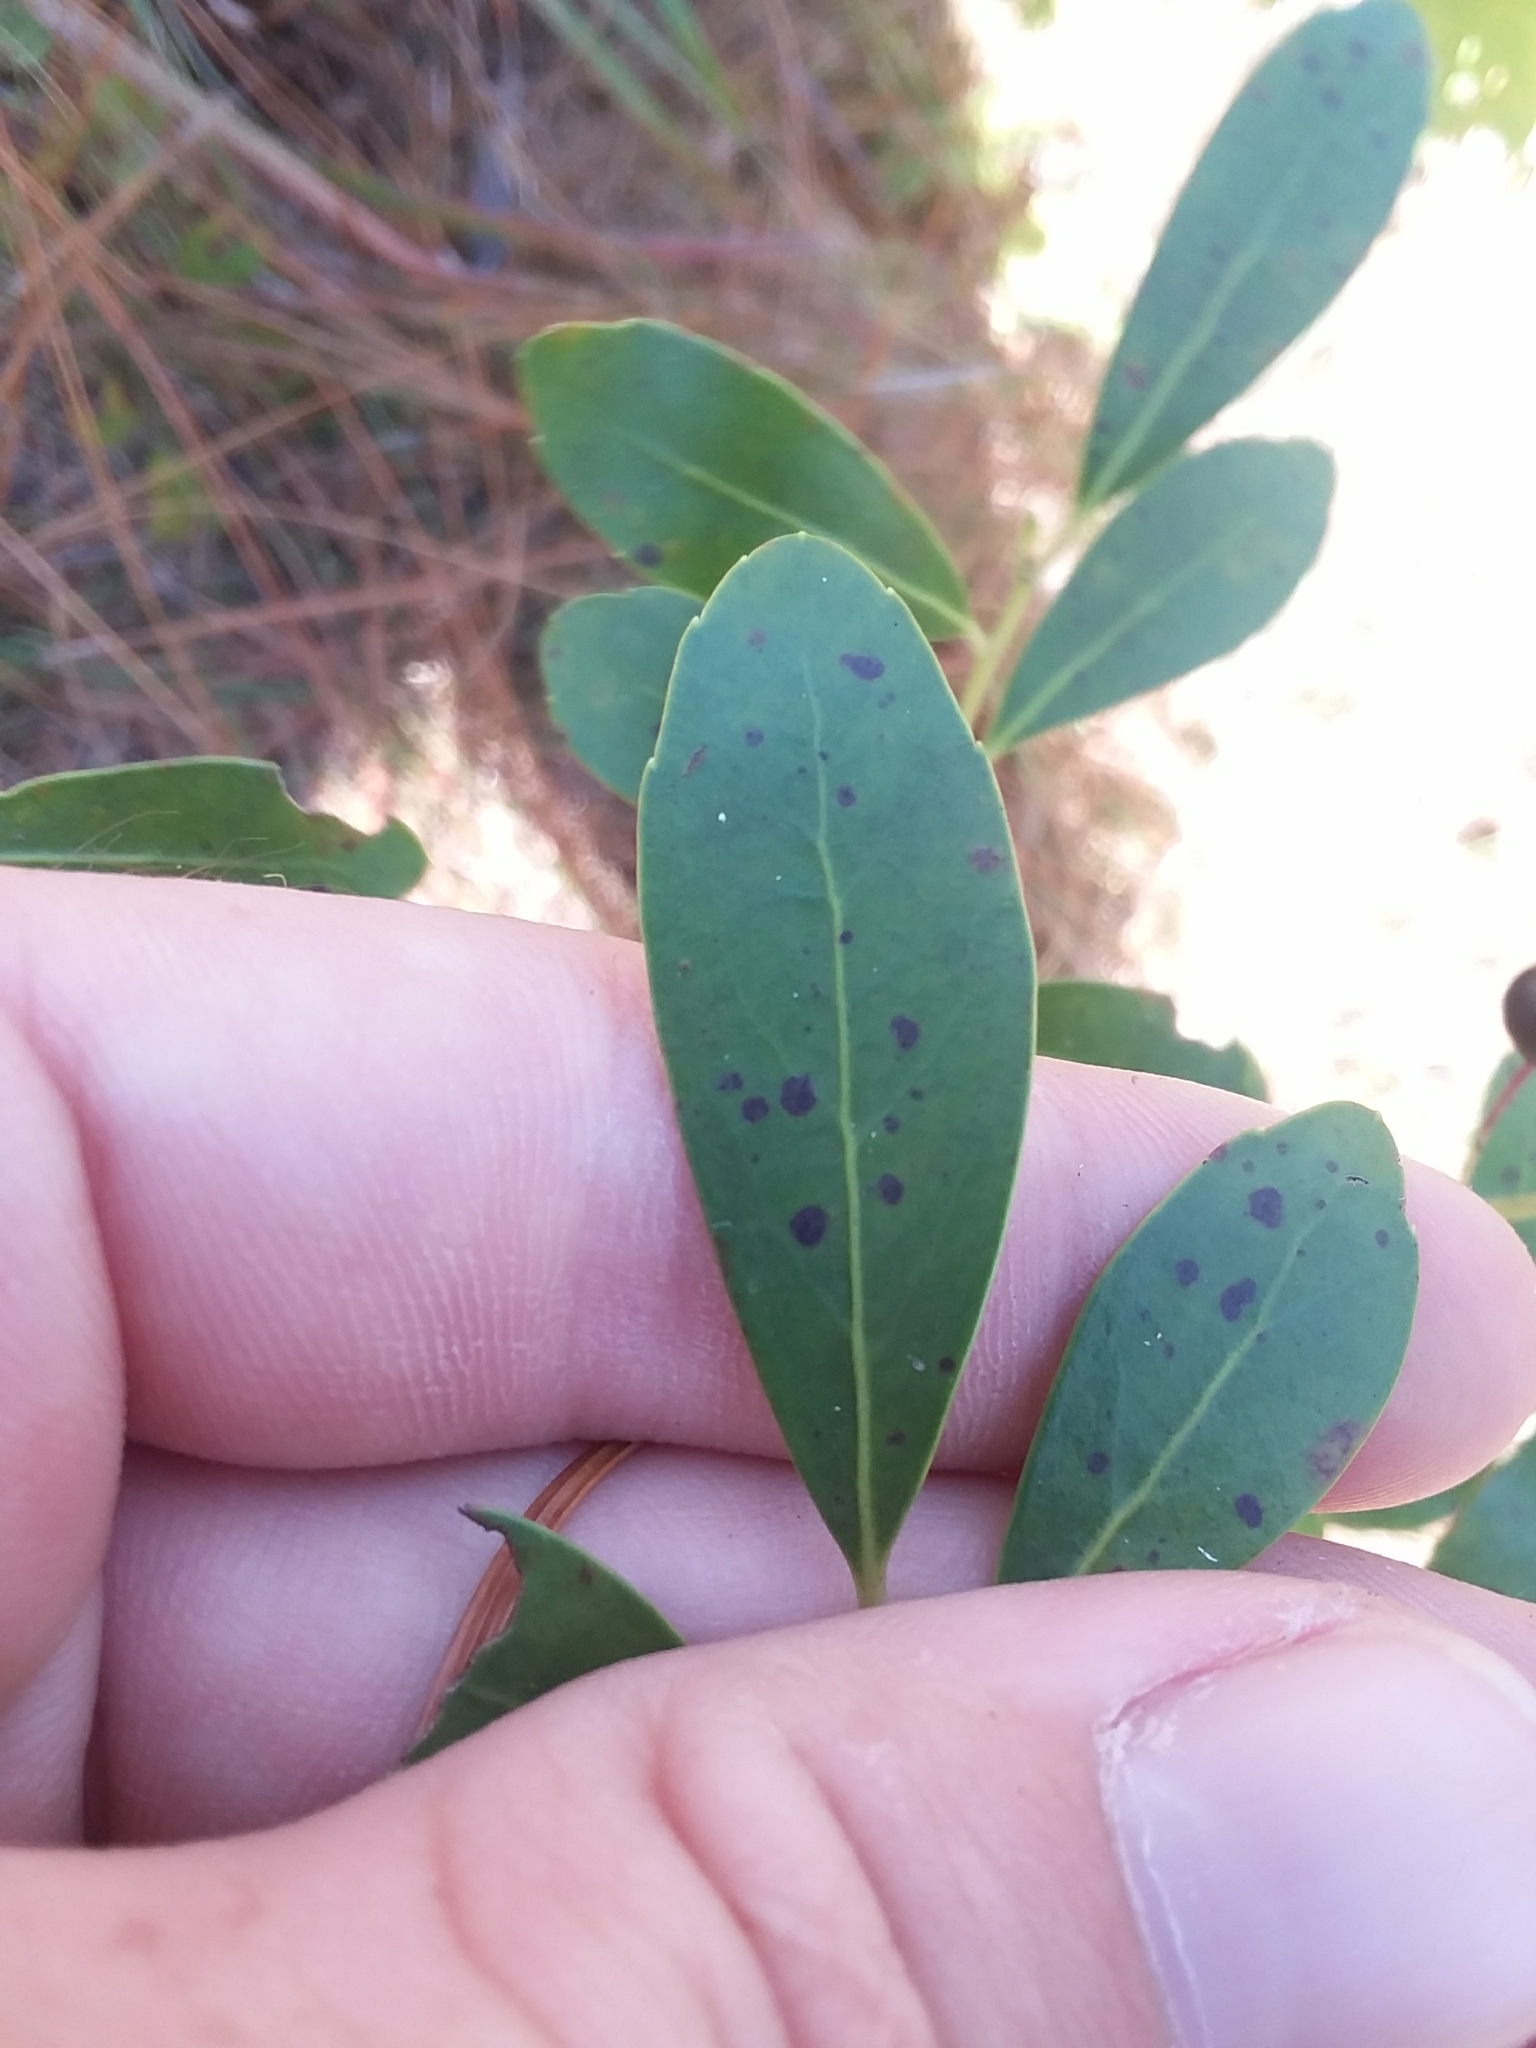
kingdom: Plantae
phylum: Tracheophyta
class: Magnoliopsida
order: Aquifoliales
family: Aquifoliaceae
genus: Ilex
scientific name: Ilex glabra
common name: Bitter gallberry
